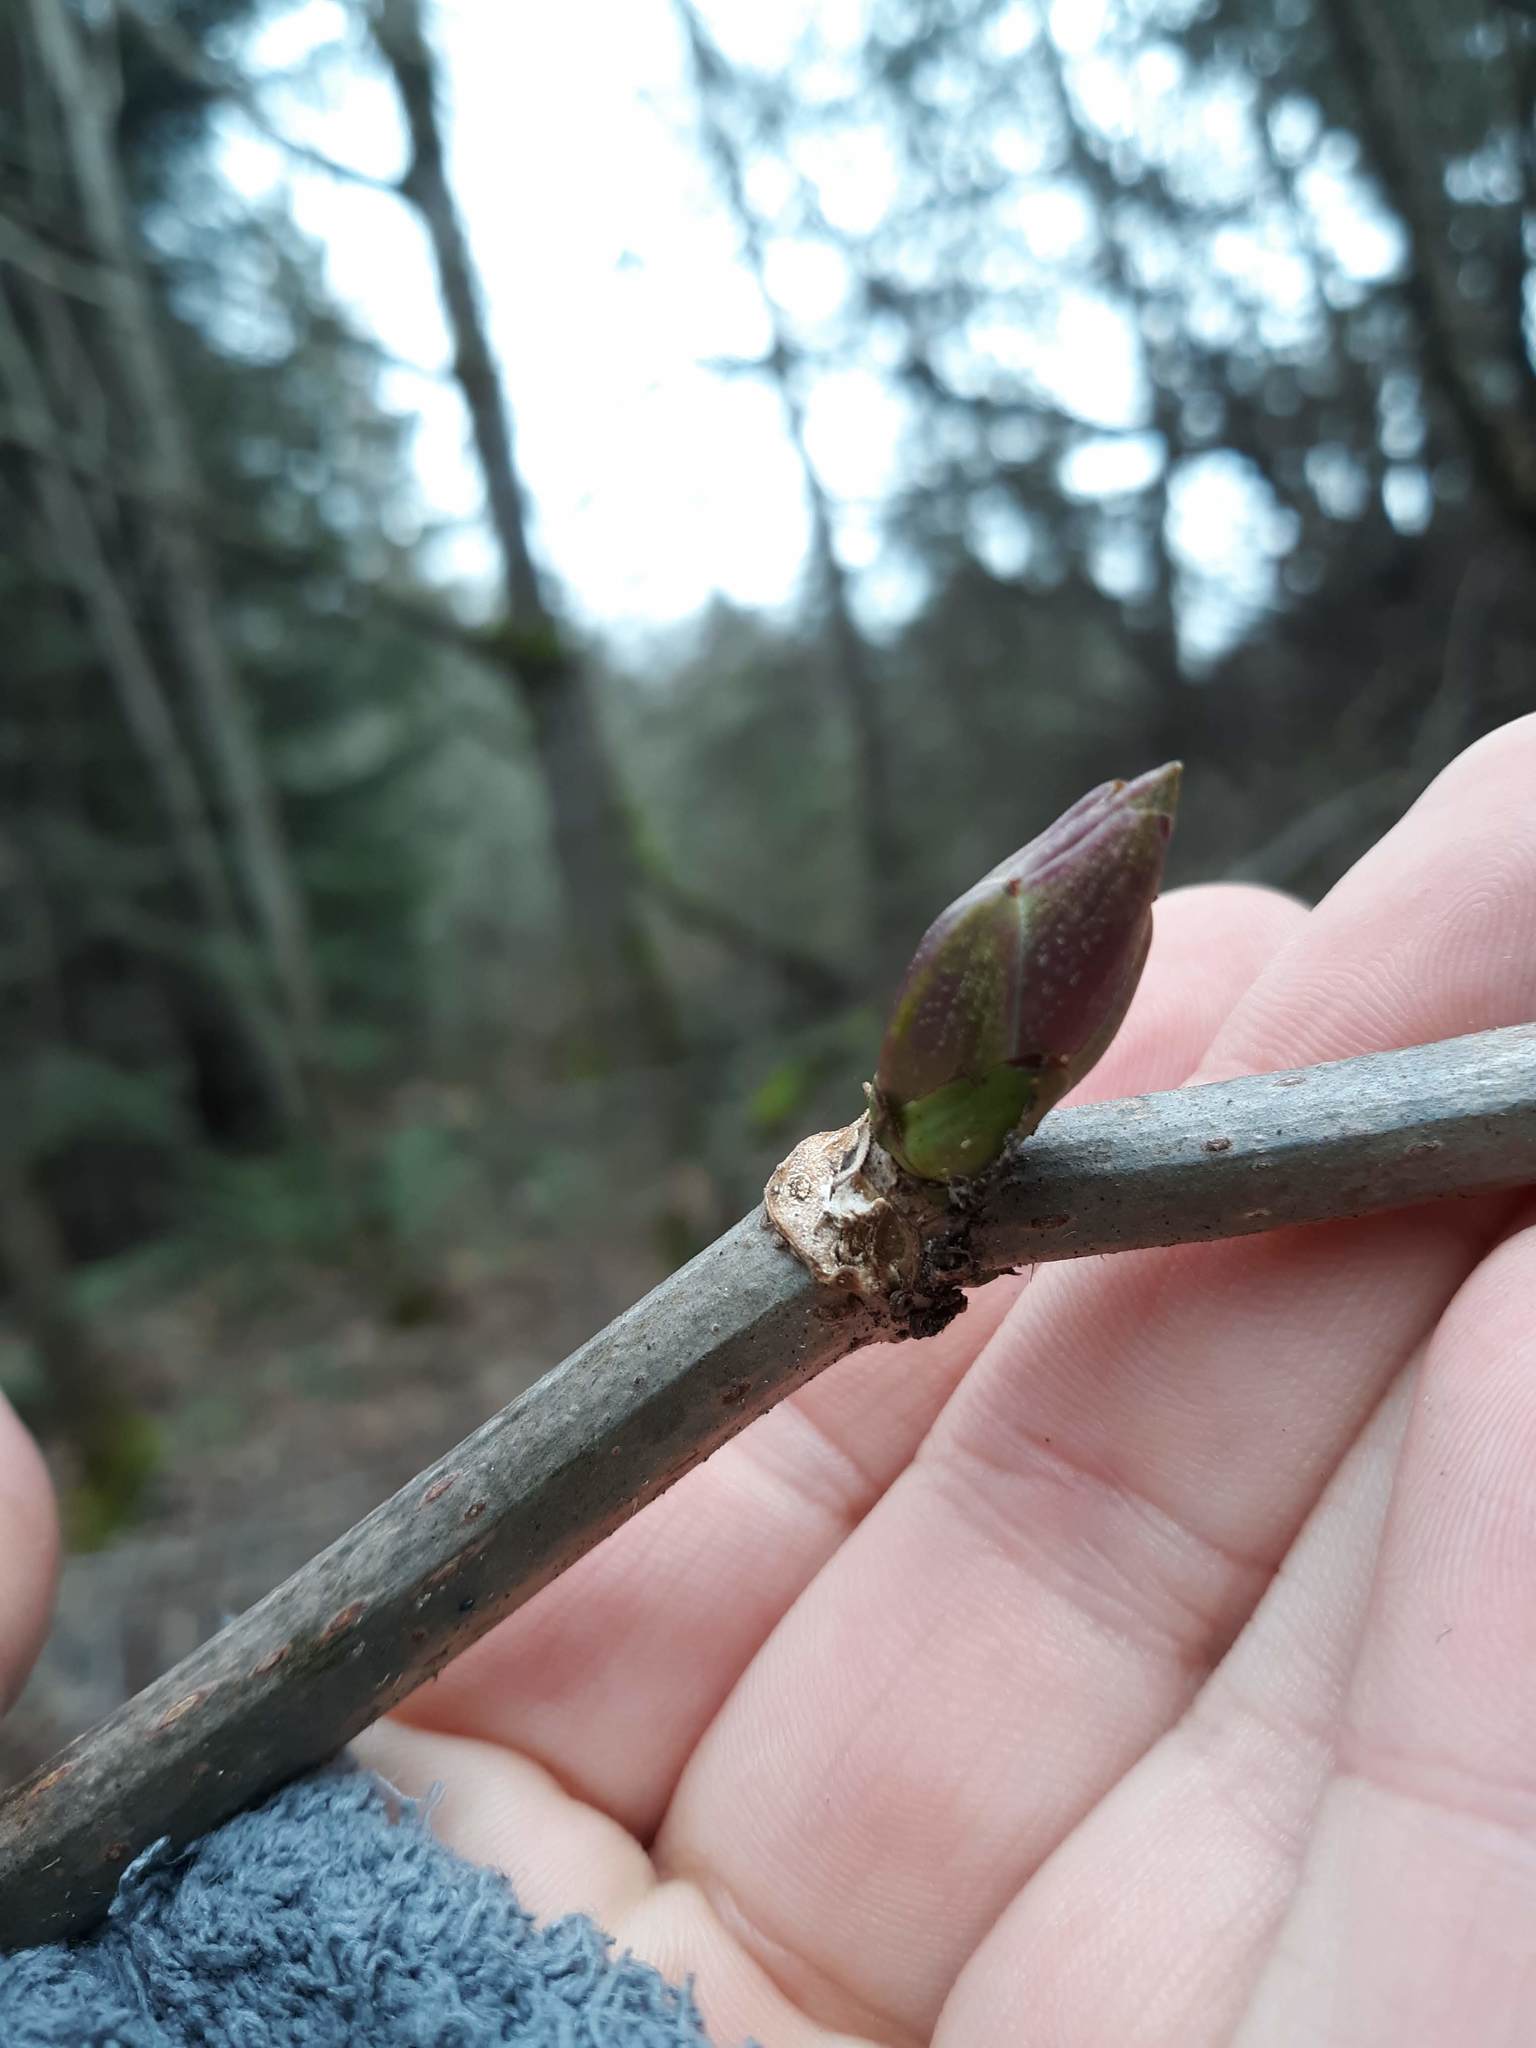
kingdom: Plantae
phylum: Tracheophyta
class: Magnoliopsida
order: Dipsacales
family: Viburnaceae
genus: Sambucus
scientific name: Sambucus racemosa
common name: Red-berried elder
